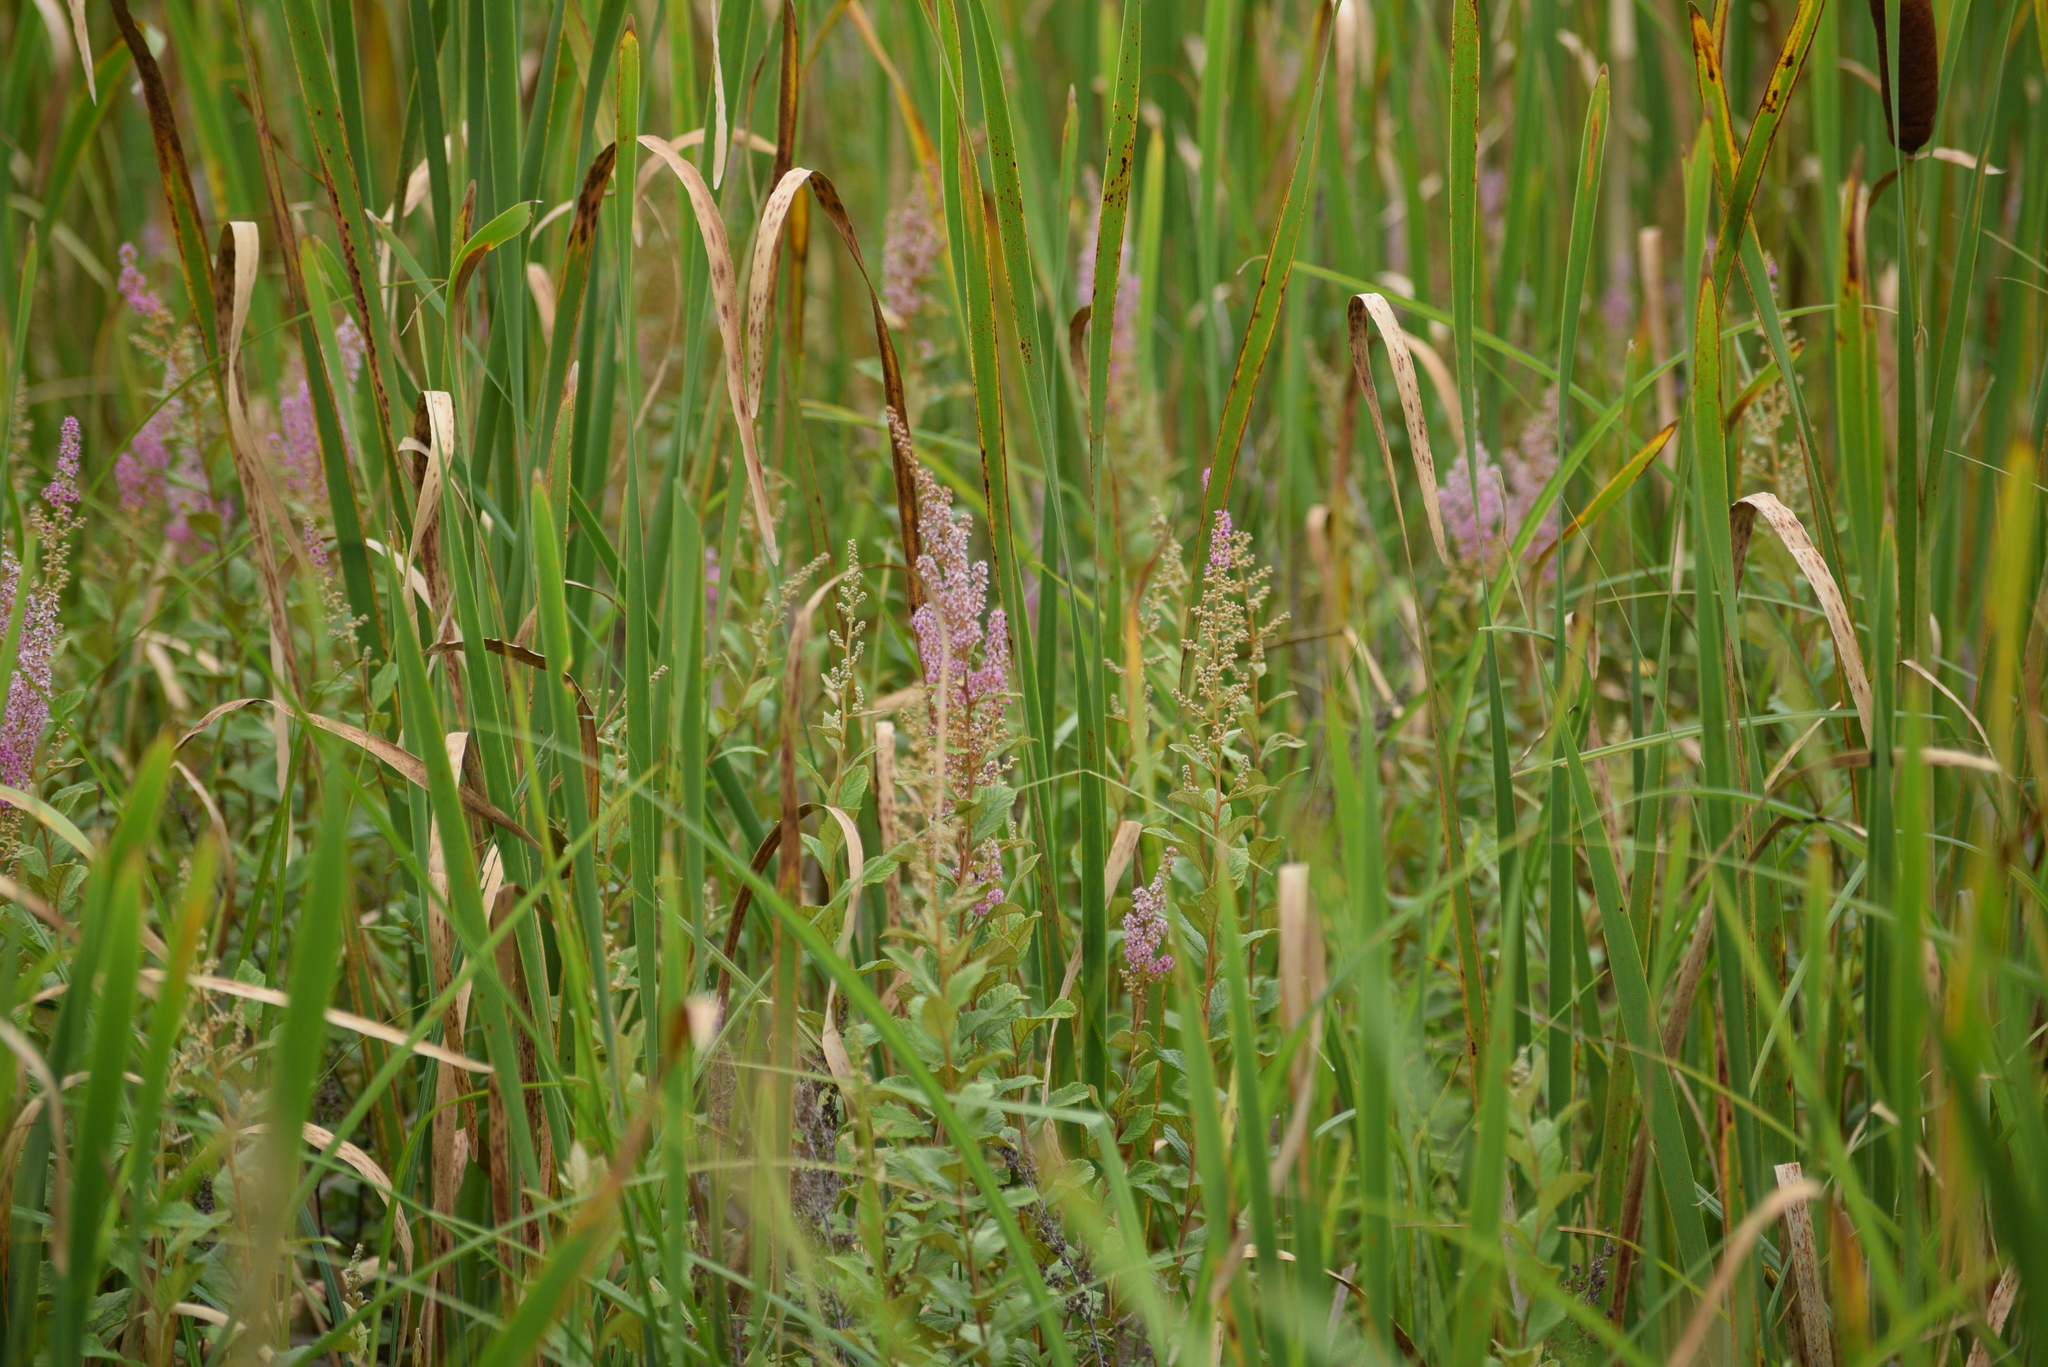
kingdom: Plantae
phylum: Tracheophyta
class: Magnoliopsida
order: Rosales
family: Rosaceae
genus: Spiraea
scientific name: Spiraea tomentosa
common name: Hardhack
